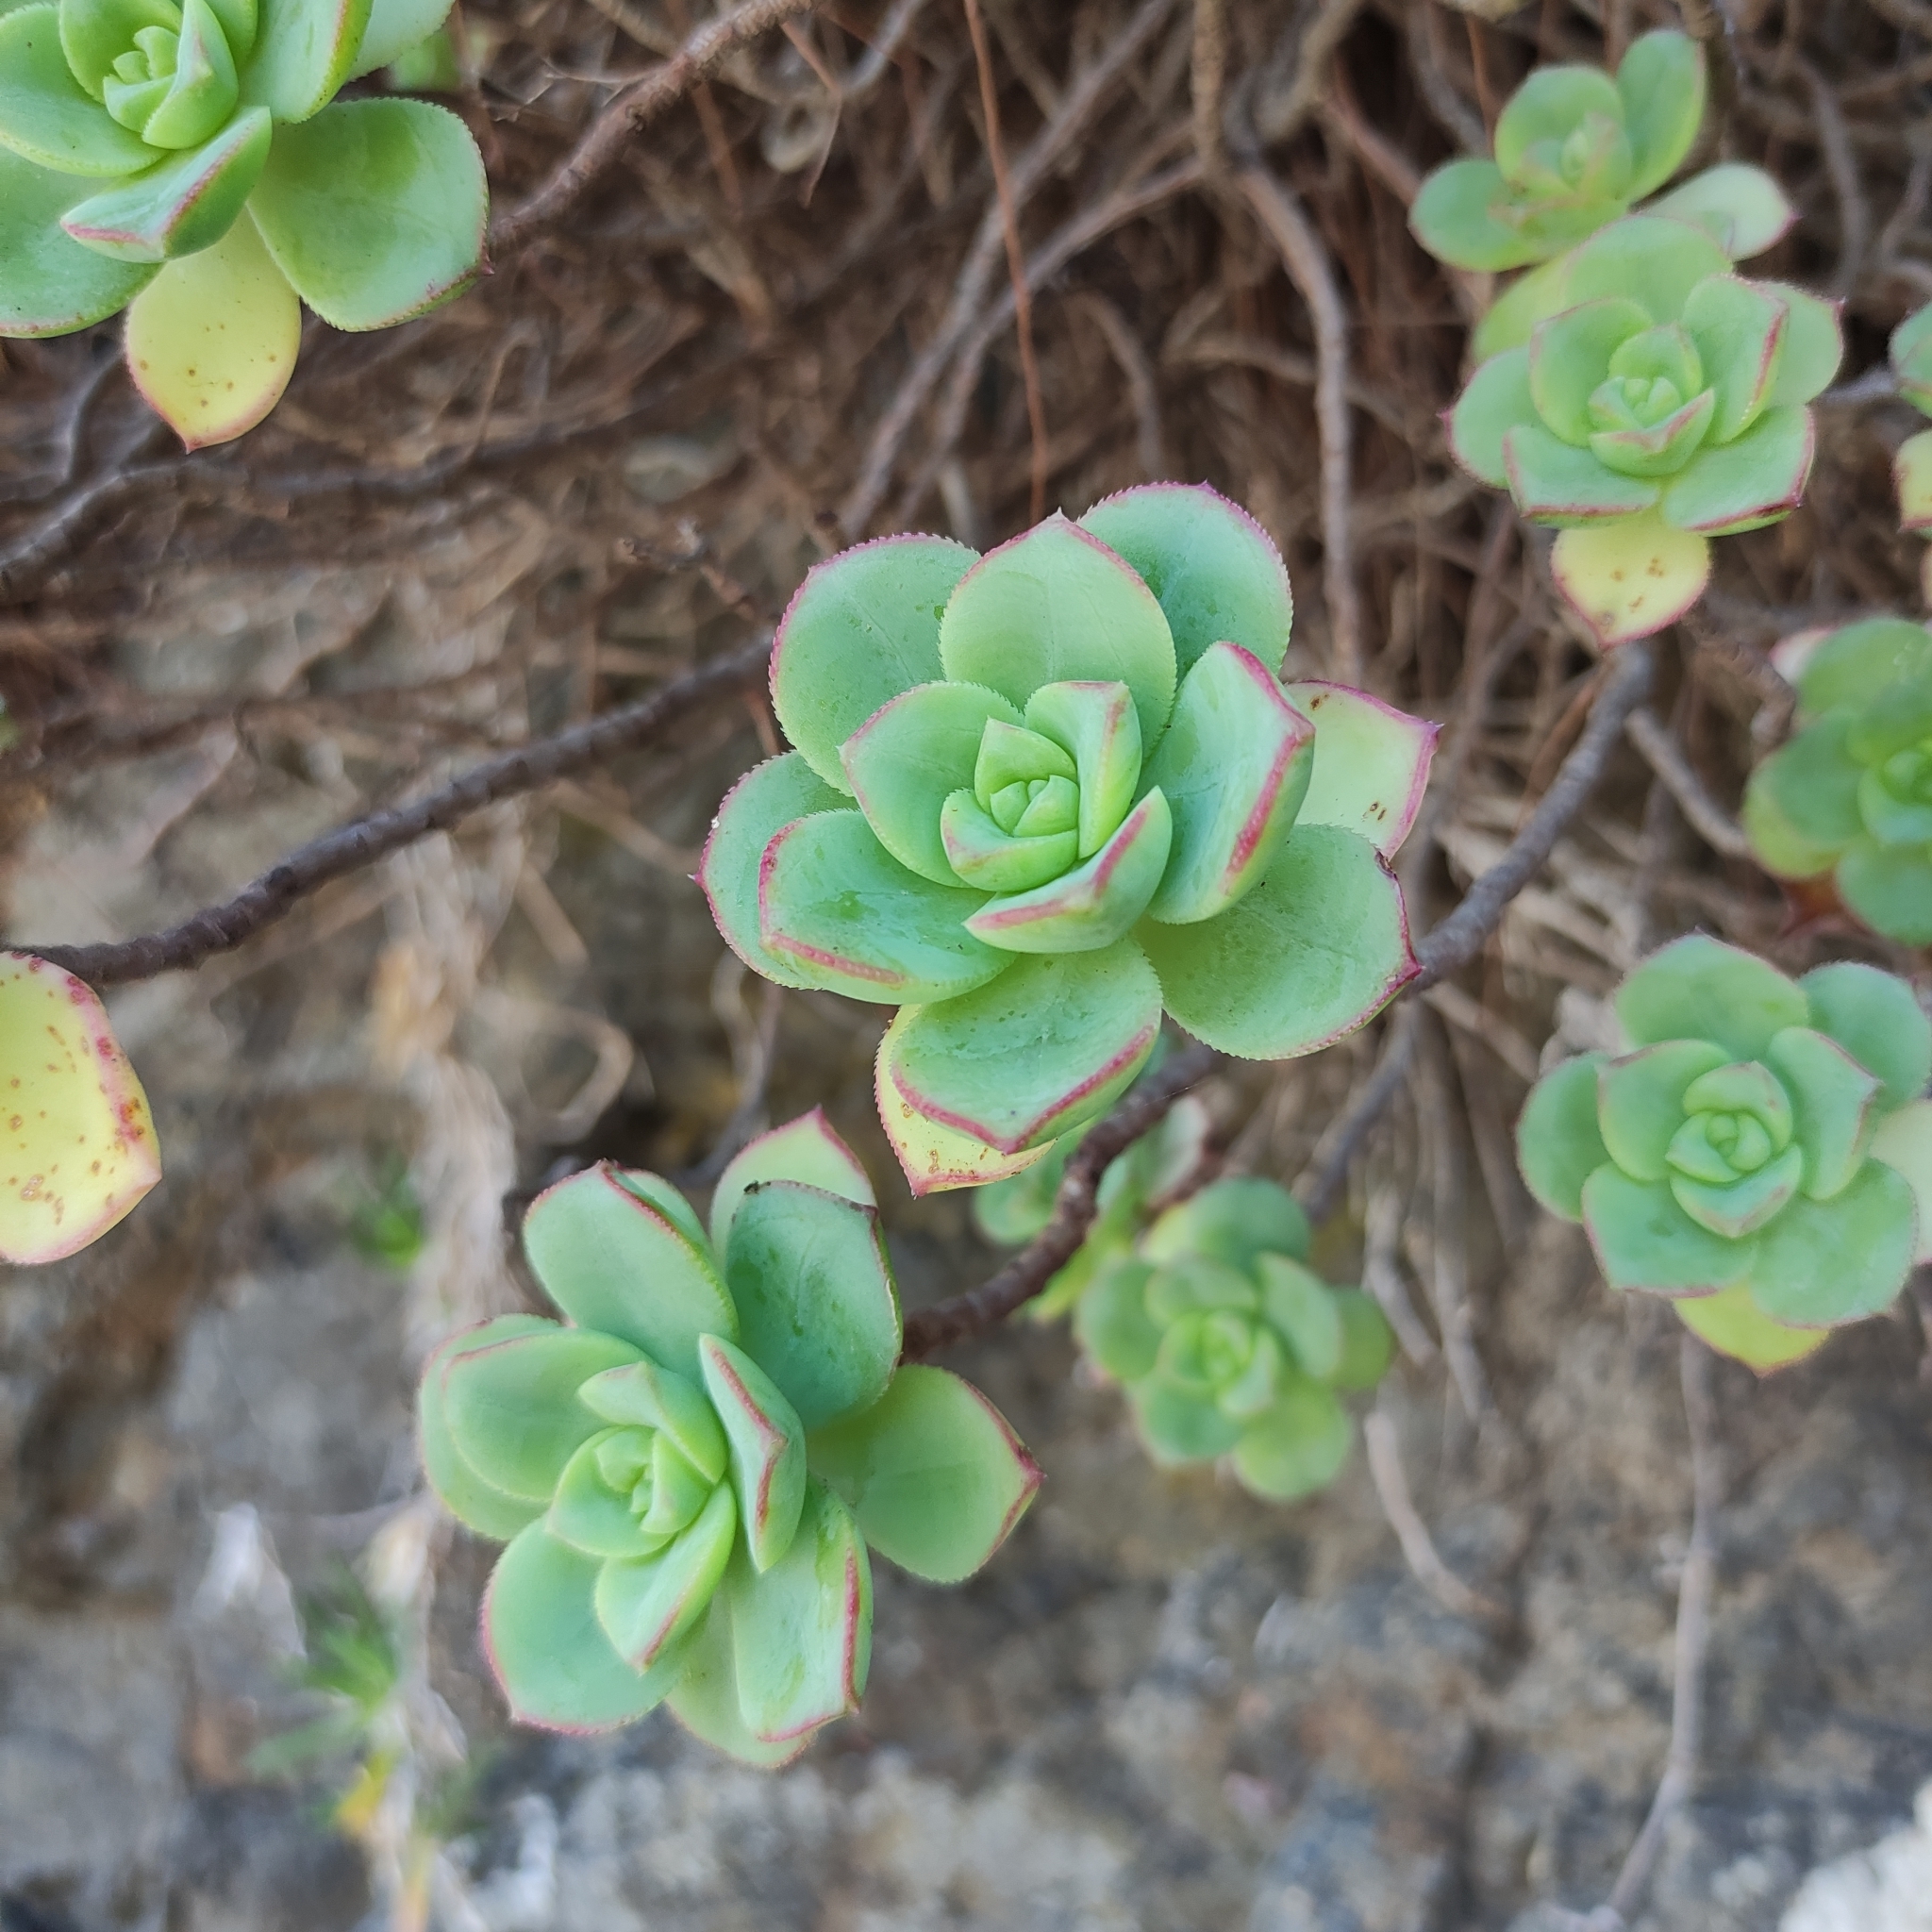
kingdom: Plantae
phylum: Tracheophyta
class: Magnoliopsida
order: Saxifragales
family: Crassulaceae
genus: Aeonium
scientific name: Aeonium haworthii
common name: Haworth's aeonium
